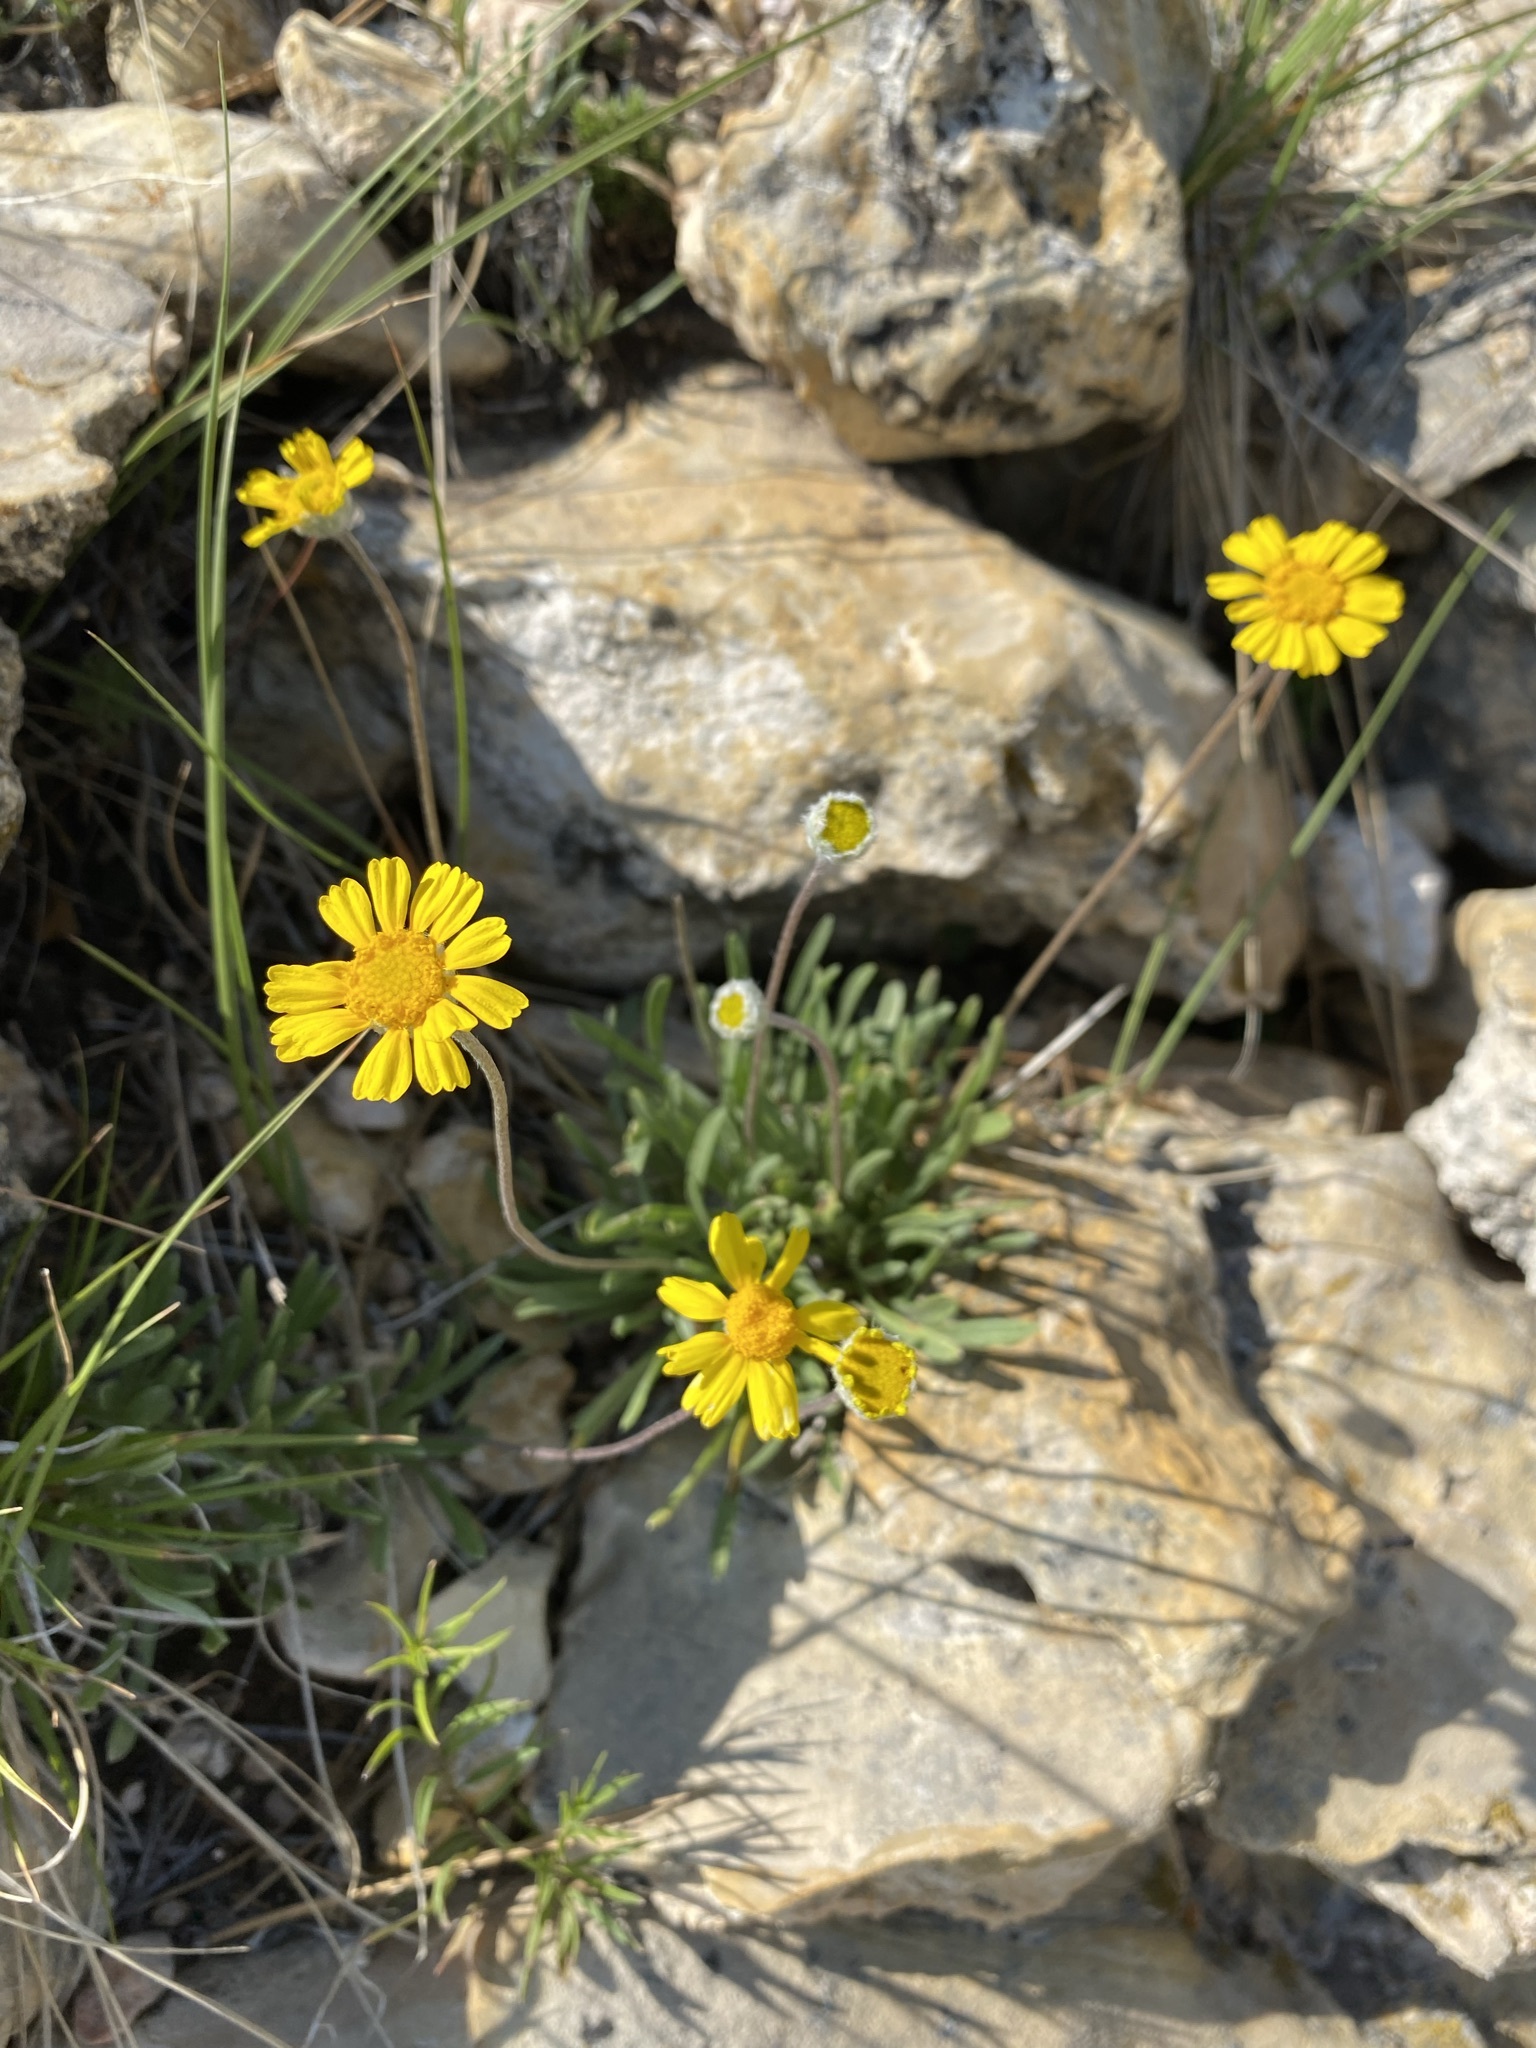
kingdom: Plantae
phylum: Tracheophyta
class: Magnoliopsida
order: Asterales
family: Asteraceae
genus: Tetraneuris
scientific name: Tetraneuris acaulis
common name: Butte marigold
